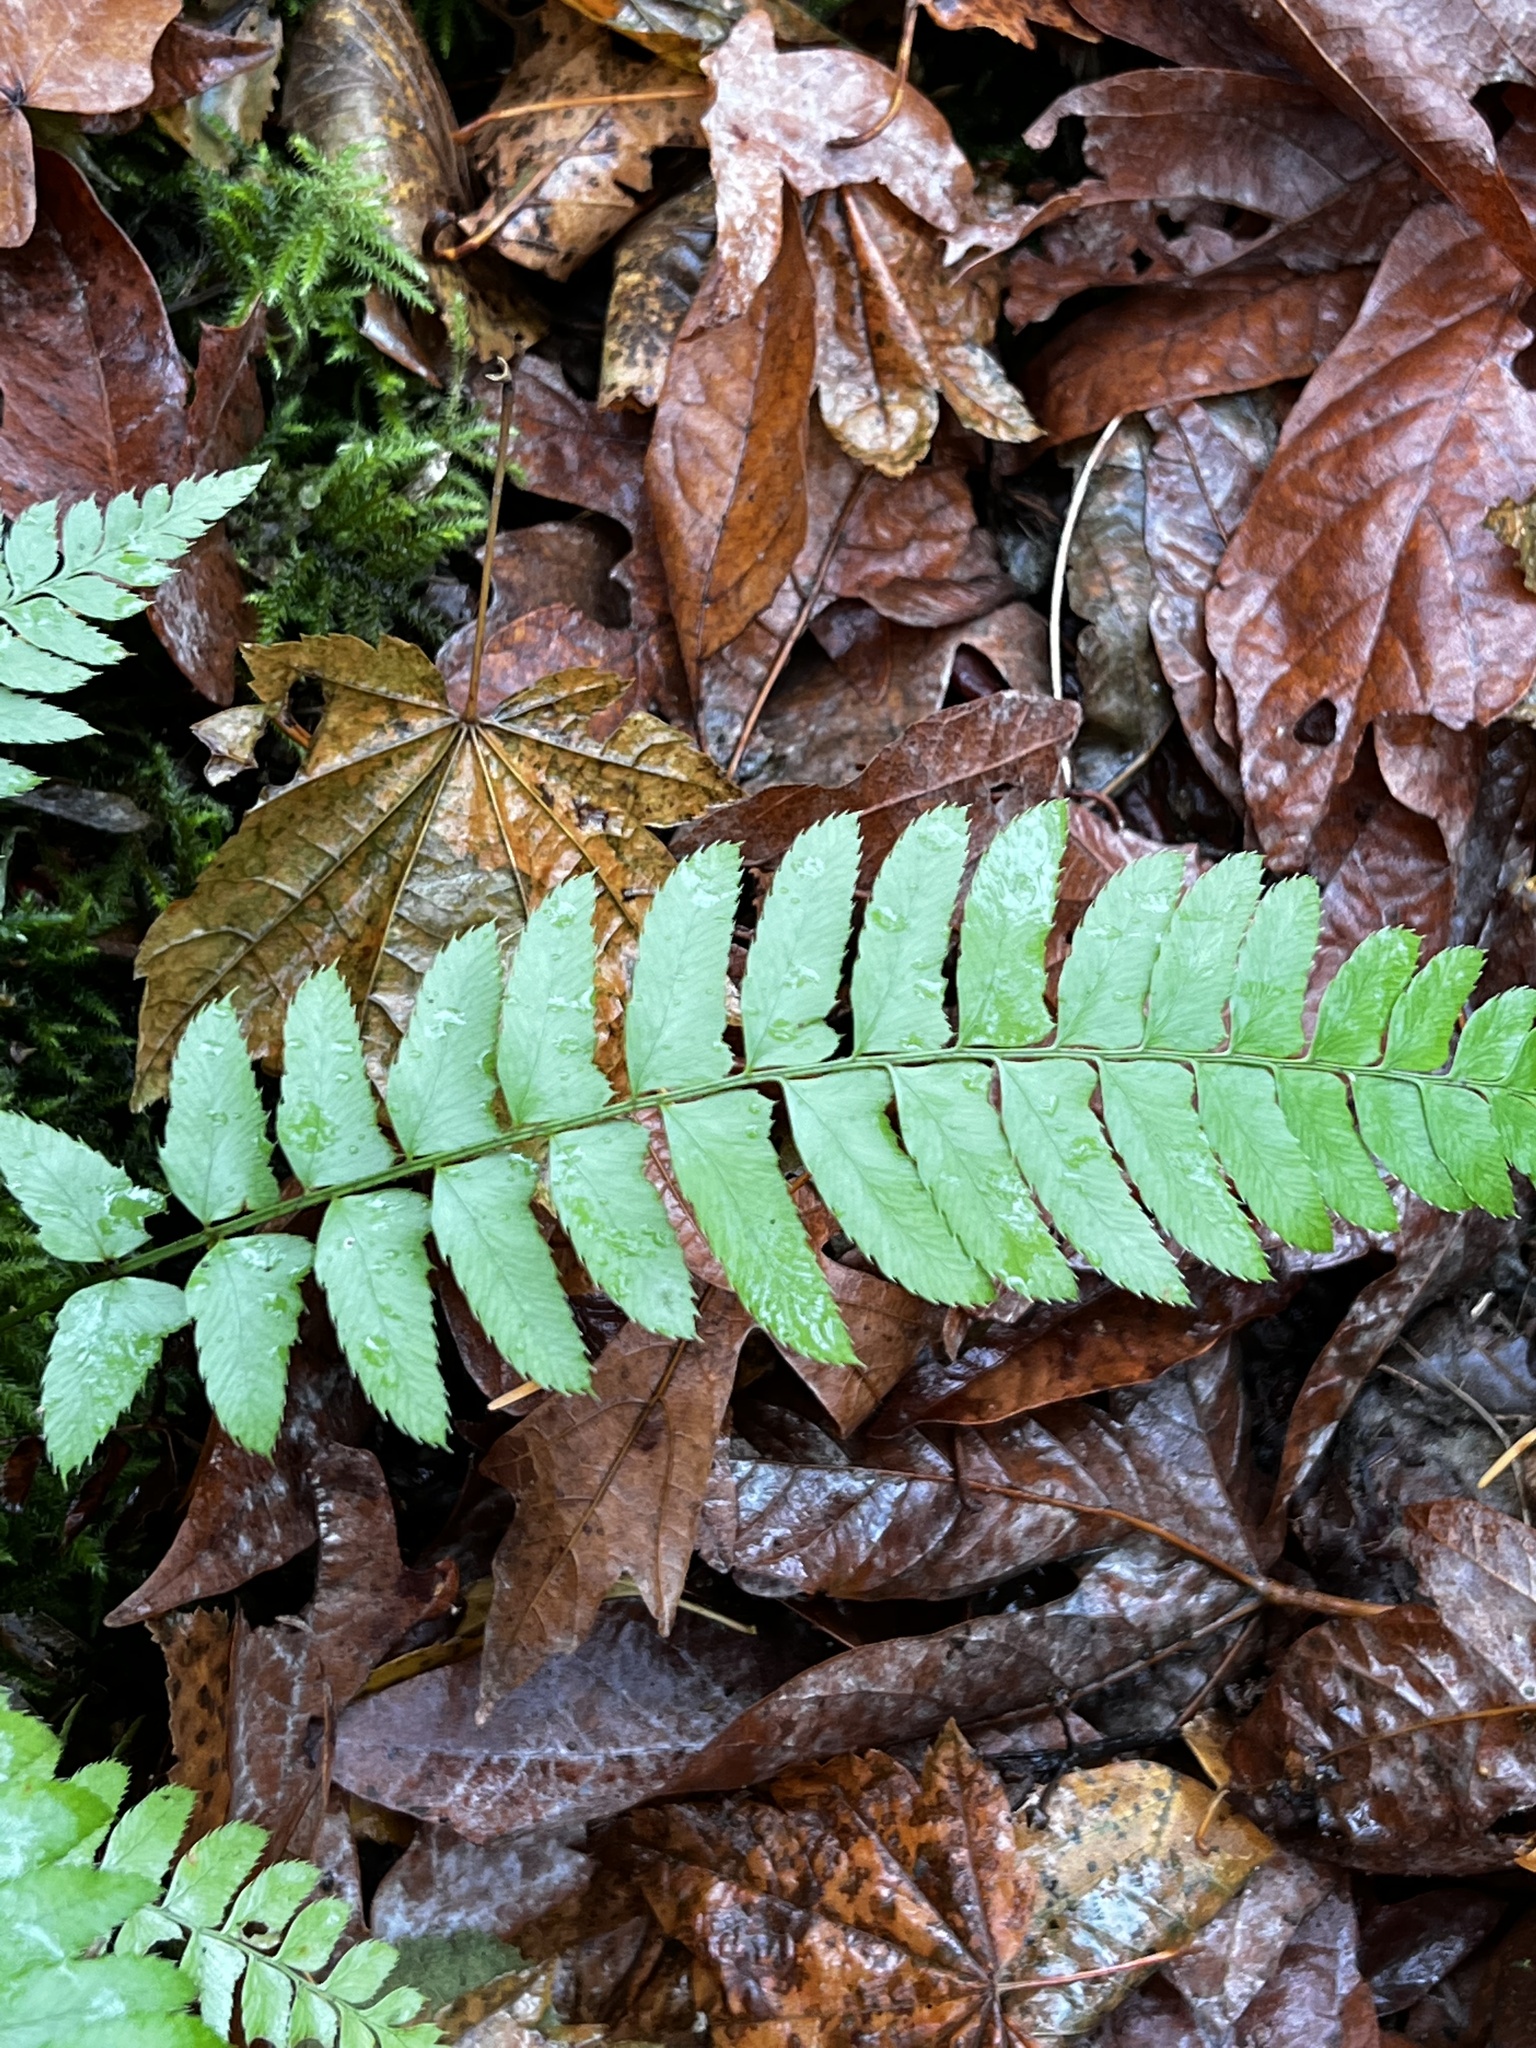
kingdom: Plantae
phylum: Tracheophyta
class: Polypodiopsida
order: Polypodiales
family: Dryopteridaceae
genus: Polystichum
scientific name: Polystichum munitum
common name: Western sword-fern
